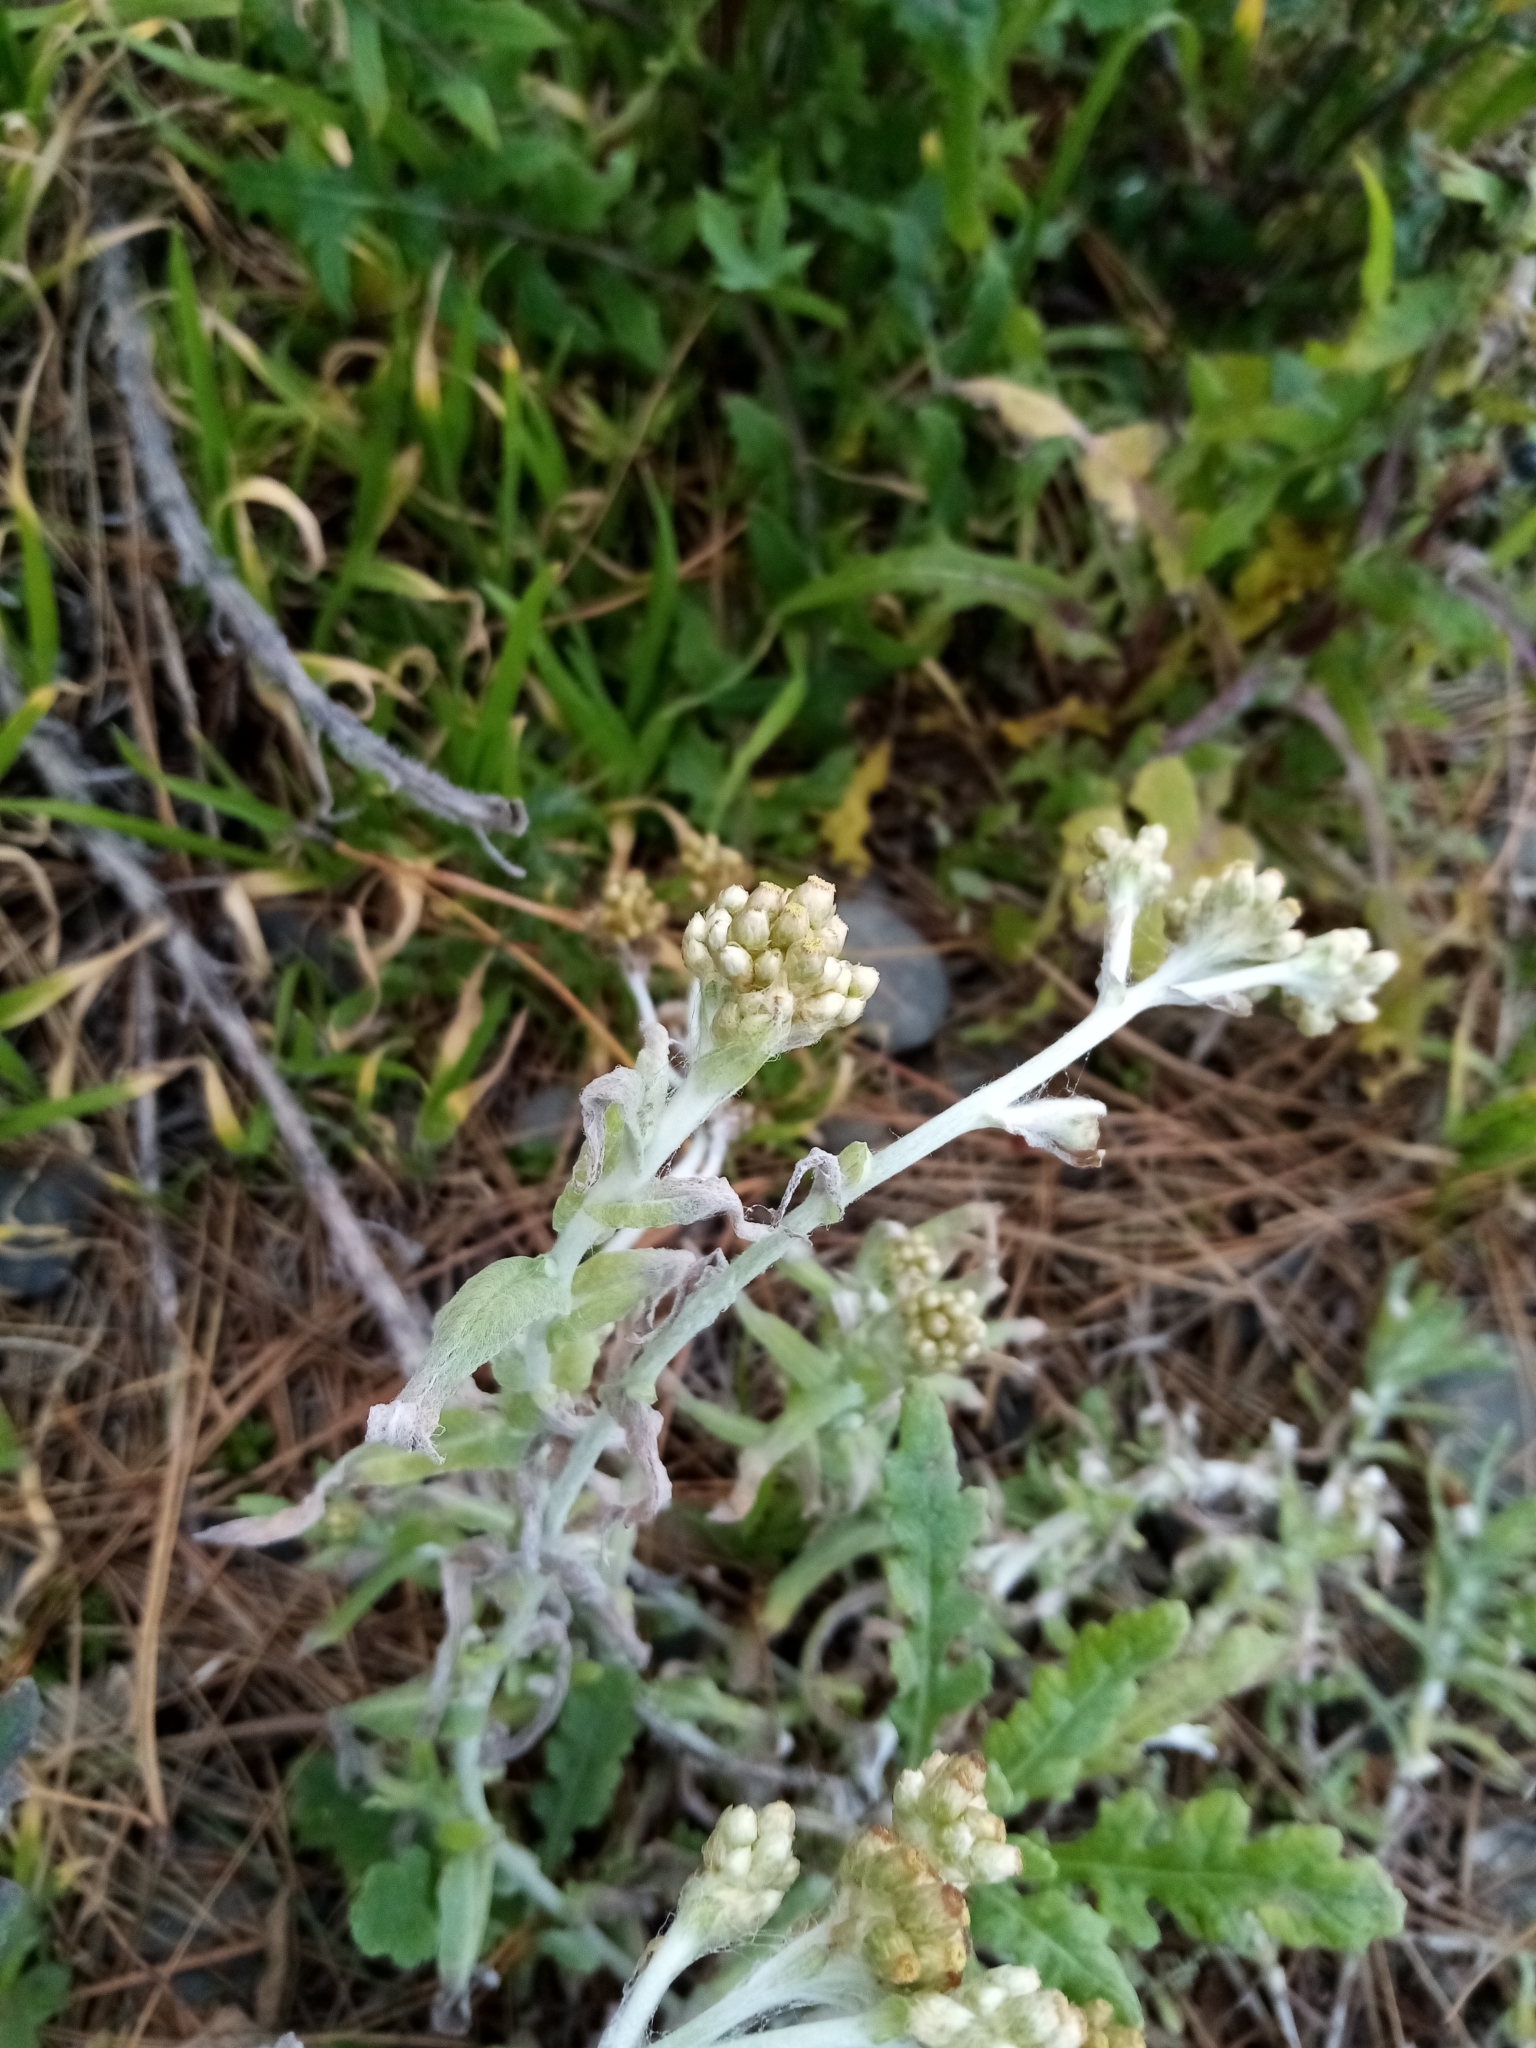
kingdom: Plantae
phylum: Tracheophyta
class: Magnoliopsida
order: Asterales
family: Asteraceae
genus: Helichrysum
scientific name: Helichrysum luteoalbum
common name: Daisy
